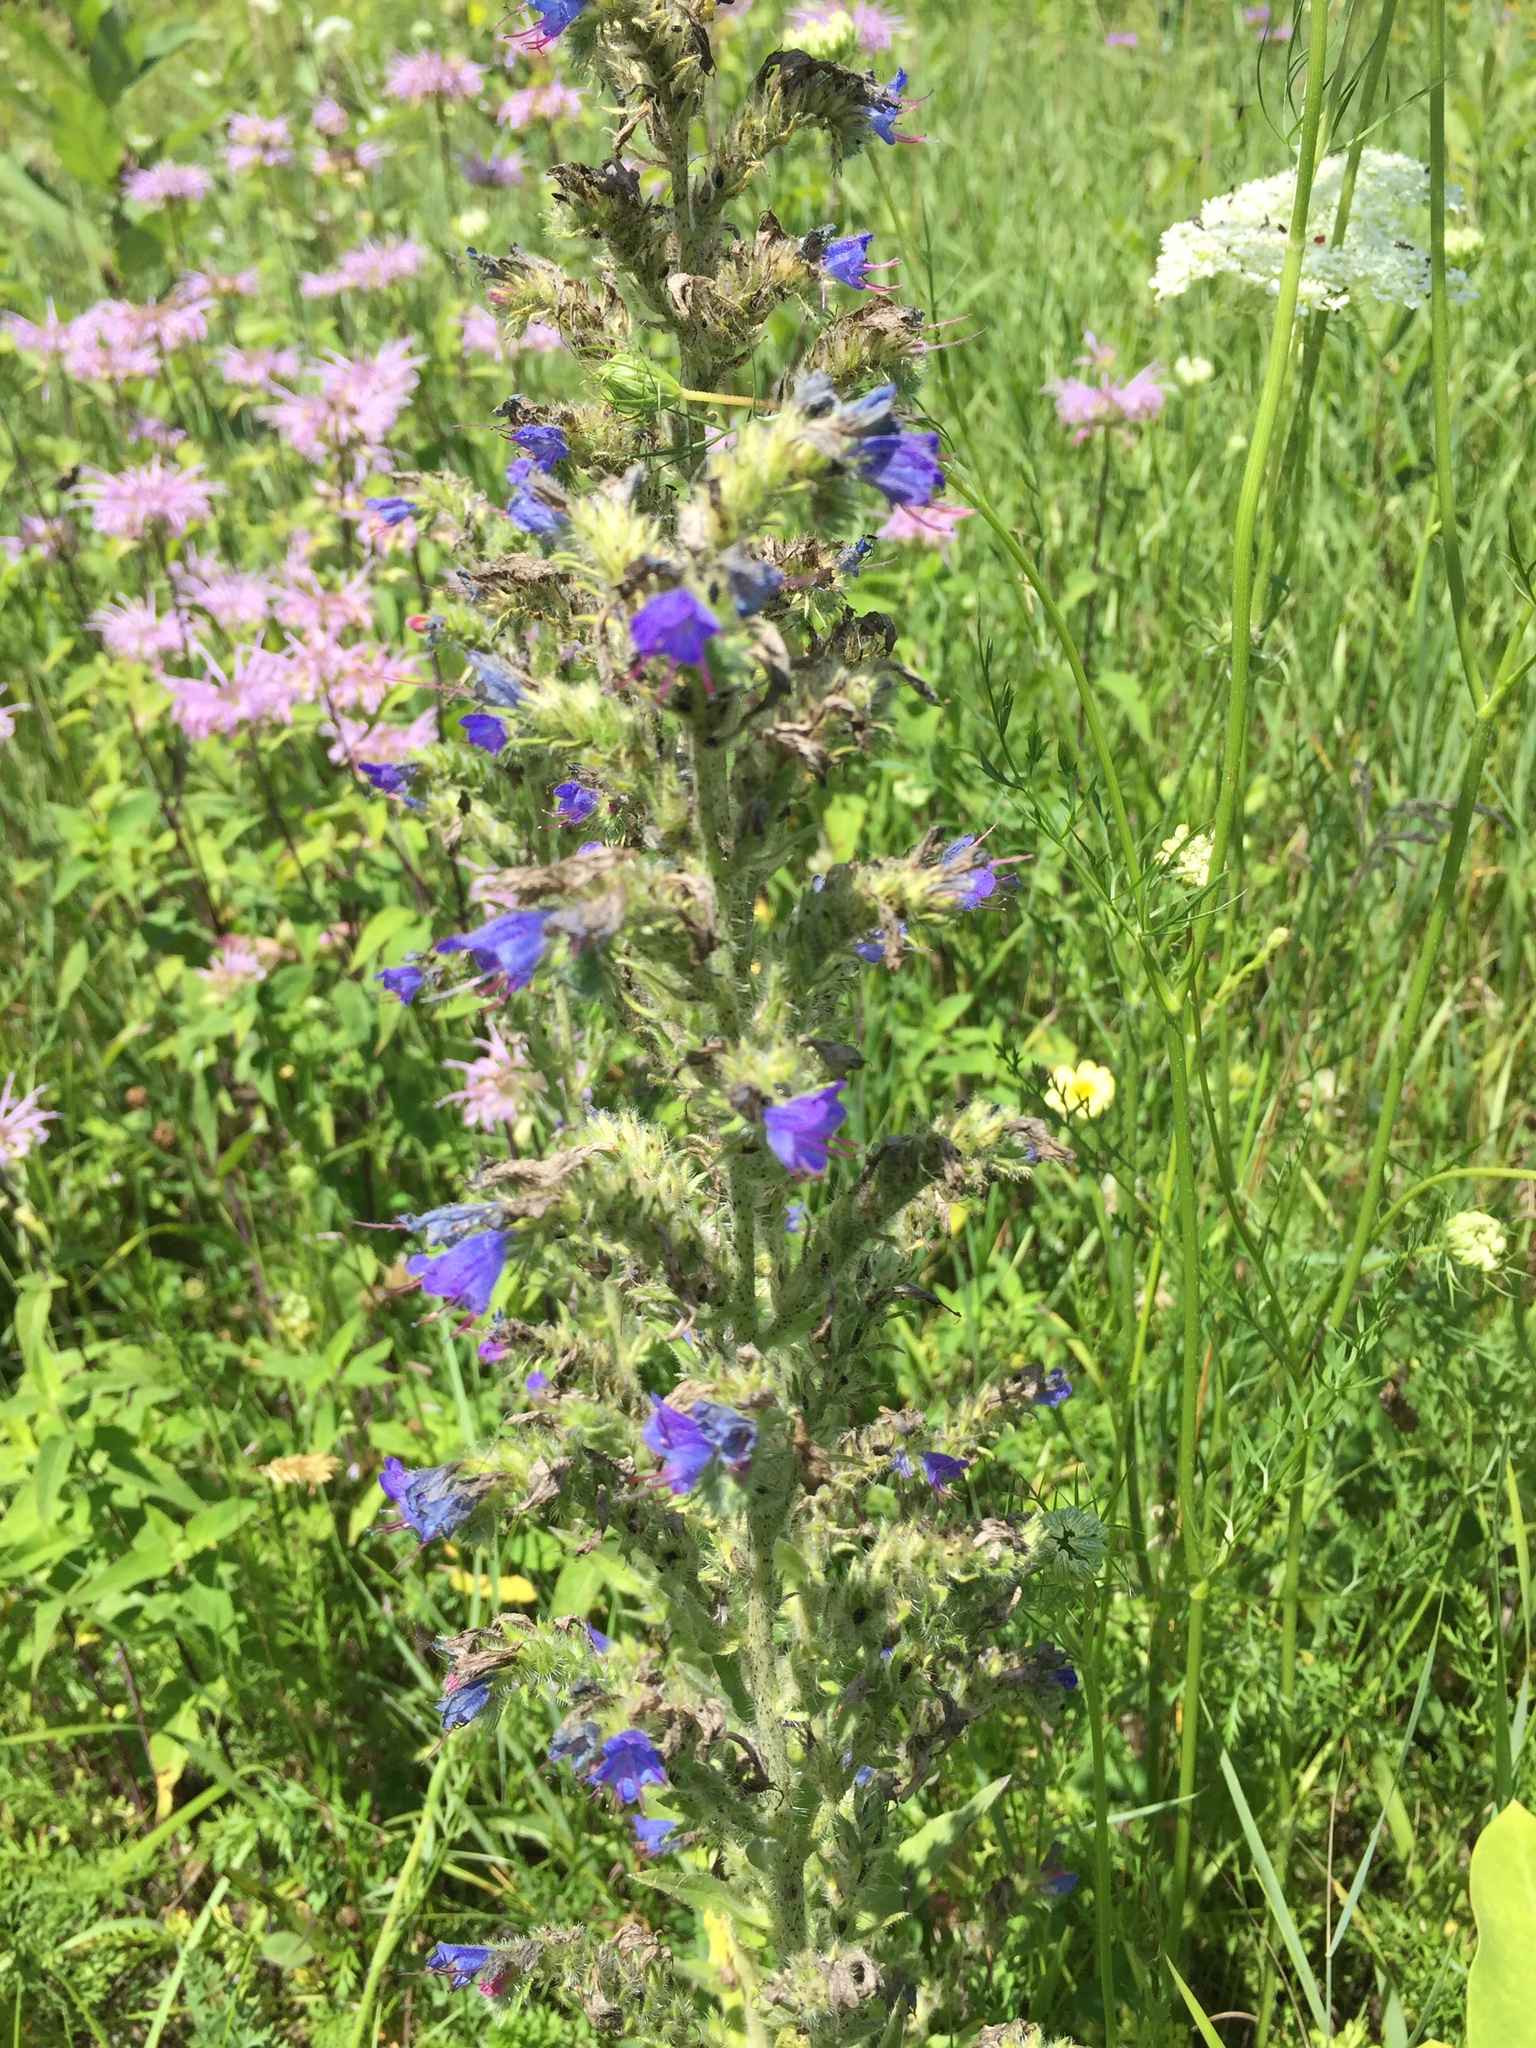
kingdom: Plantae
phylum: Tracheophyta
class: Magnoliopsida
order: Boraginales
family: Boraginaceae
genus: Echium
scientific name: Echium vulgare
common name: Common viper's bugloss
